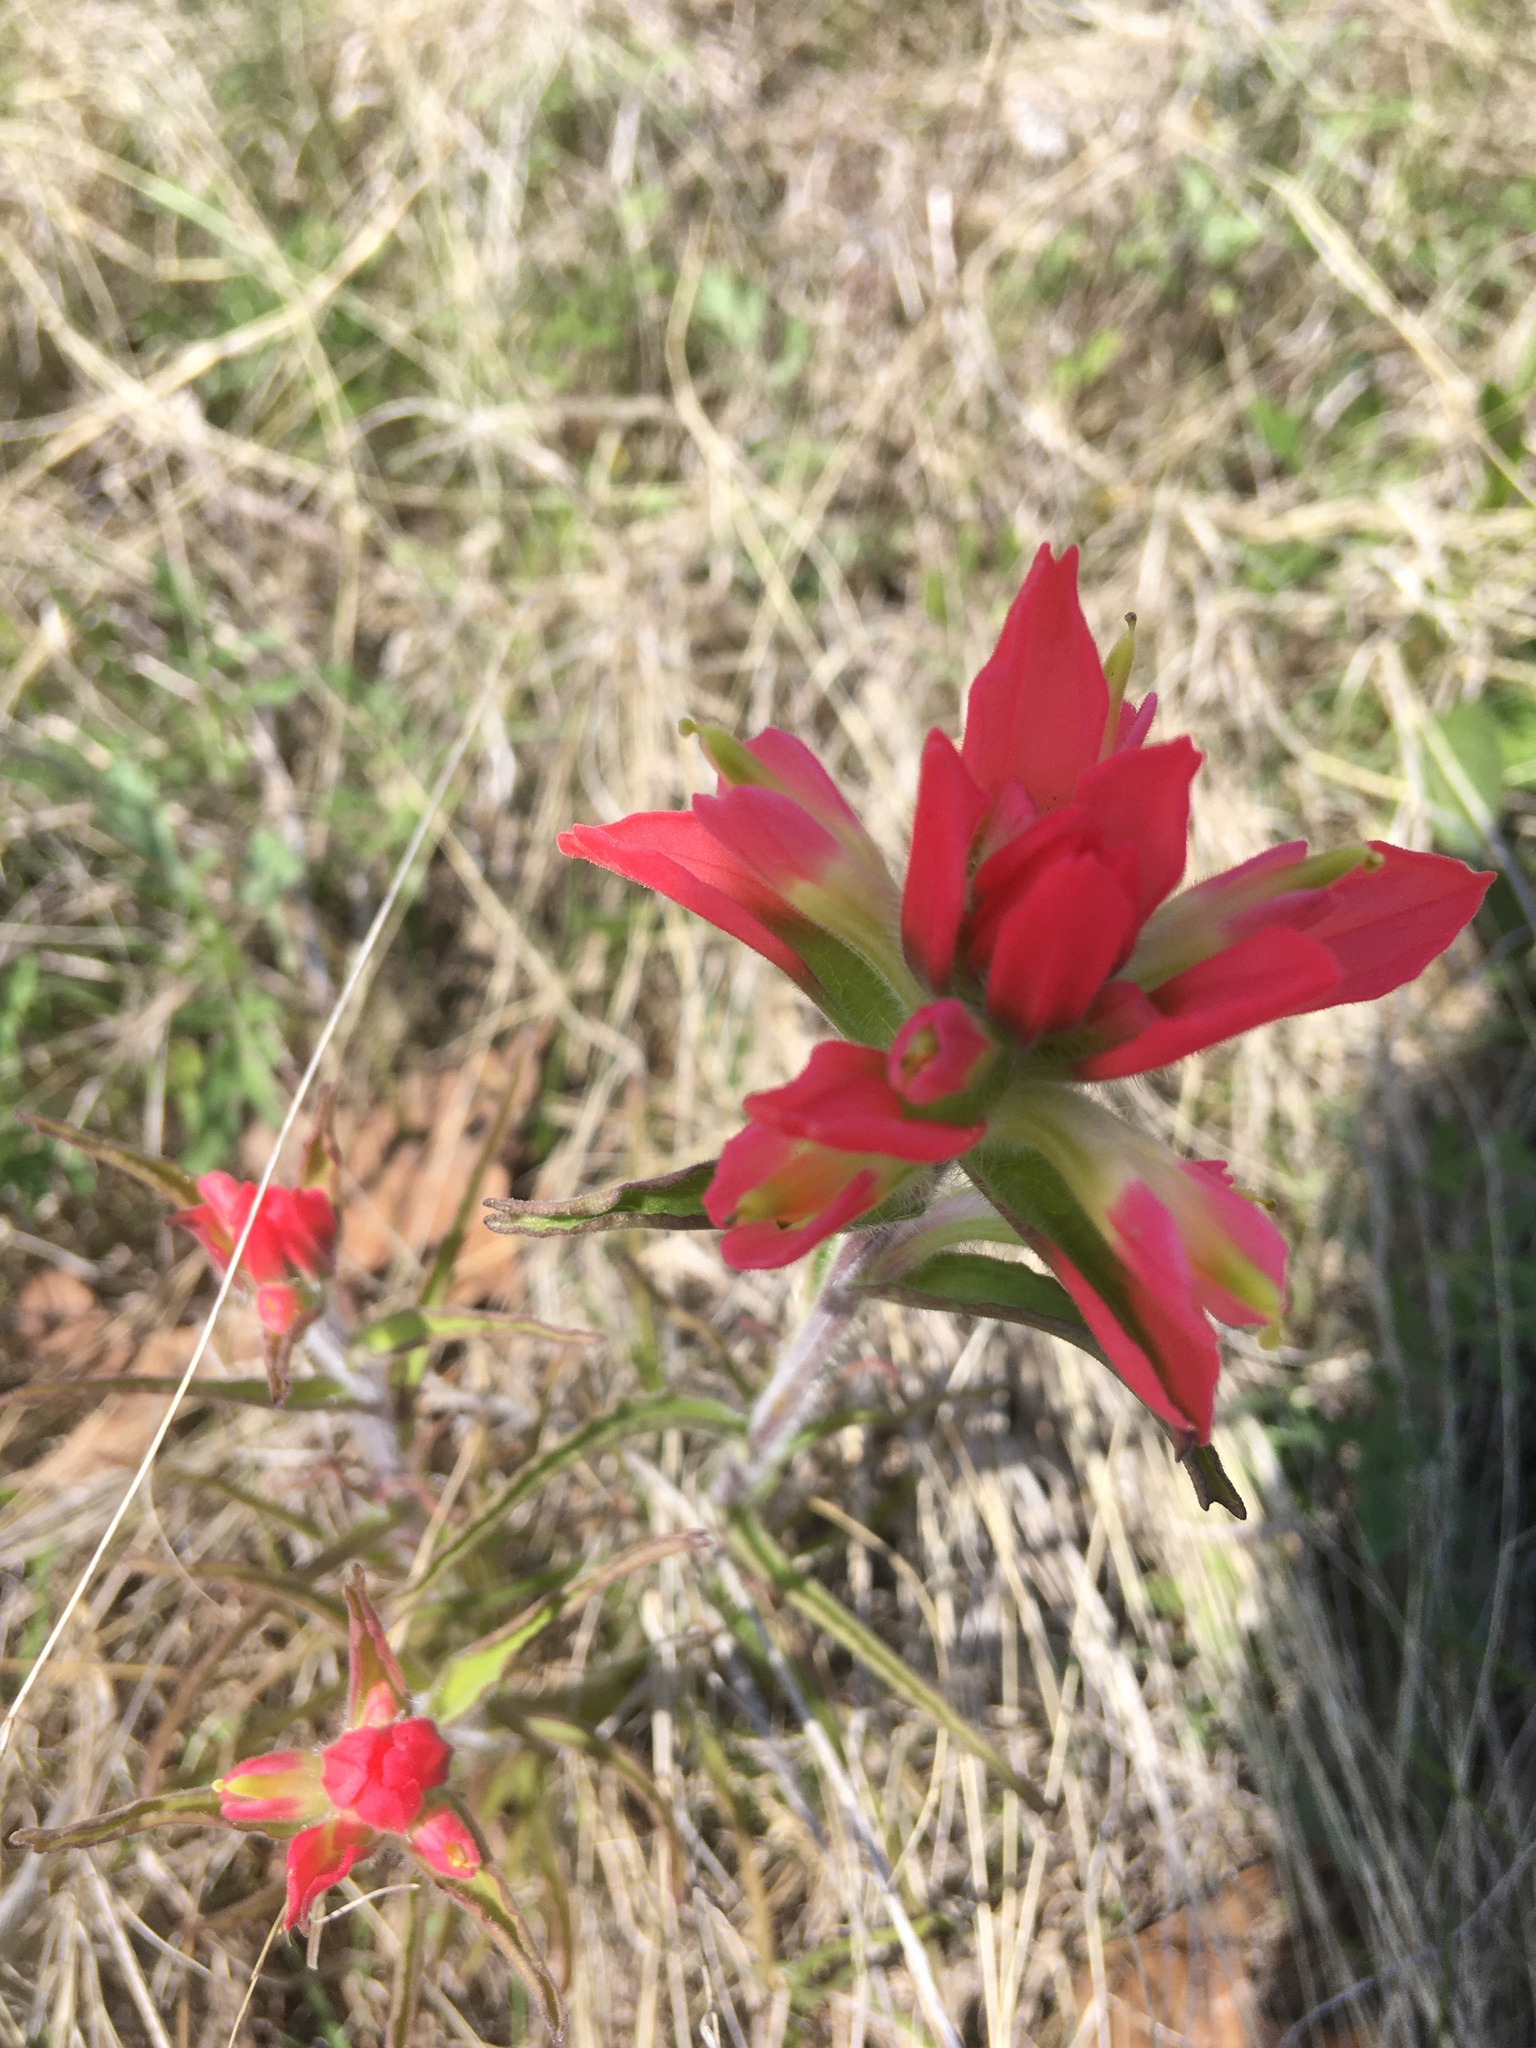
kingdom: Plantae
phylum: Tracheophyta
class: Magnoliopsida
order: Lamiales
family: Orobanchaceae
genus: Castilleja
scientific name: Castilleja indivisa
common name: Texas paintbrush
